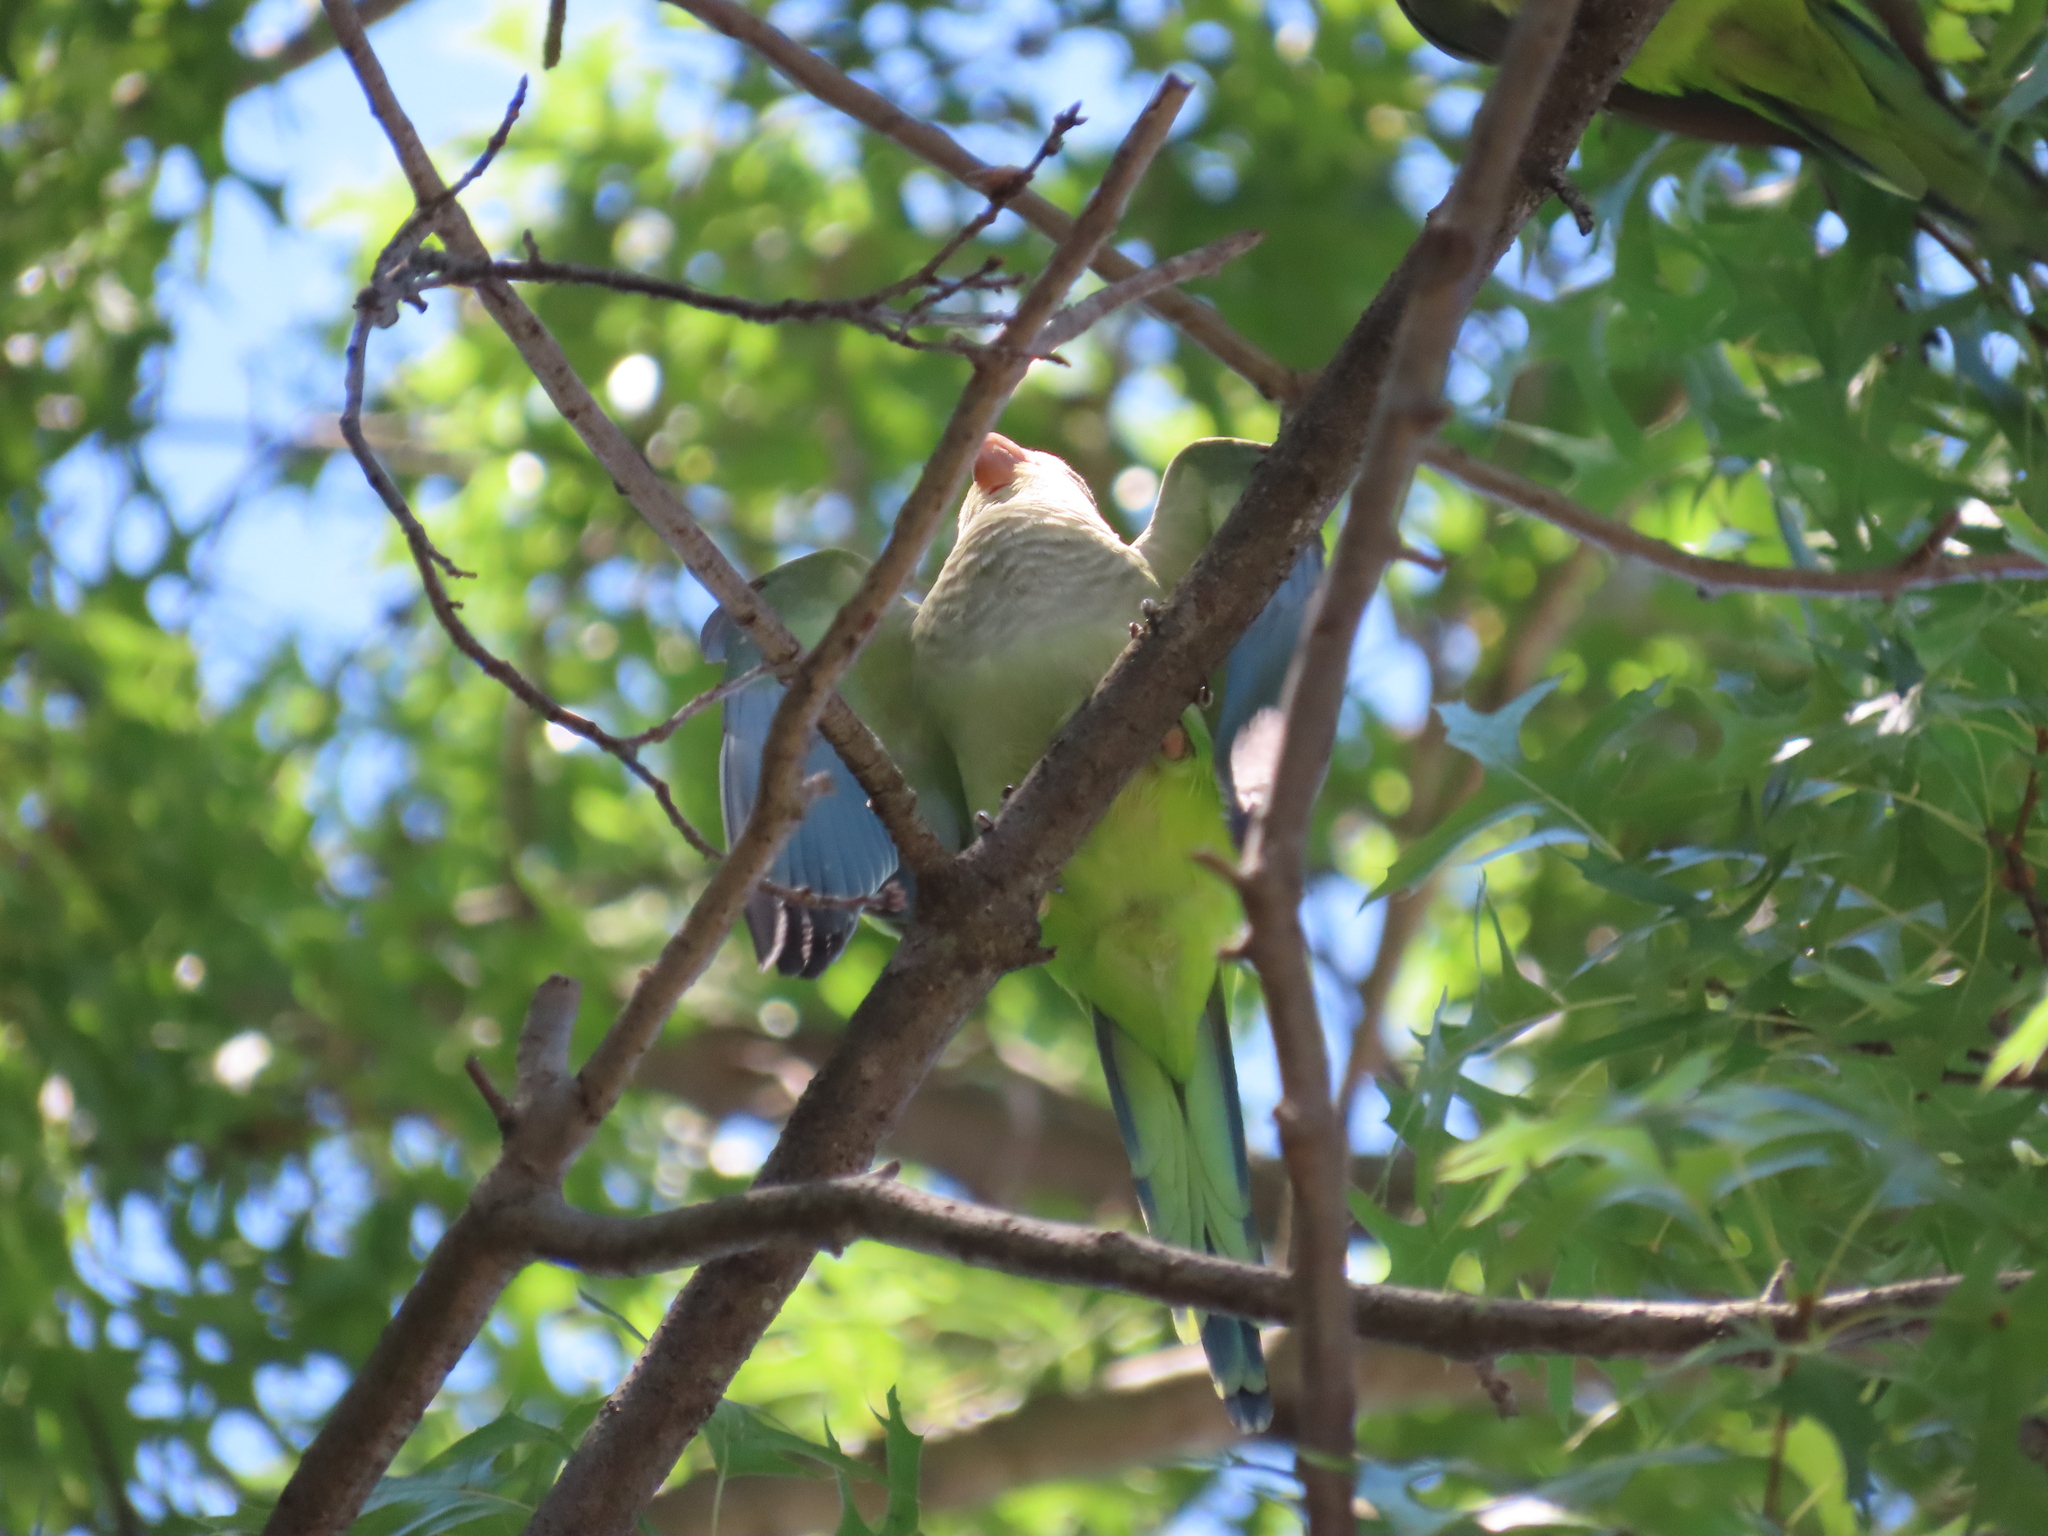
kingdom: Animalia
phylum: Chordata
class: Aves
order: Psittaciformes
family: Psittacidae
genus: Myiopsitta
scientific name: Myiopsitta monachus
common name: Monk parakeet
